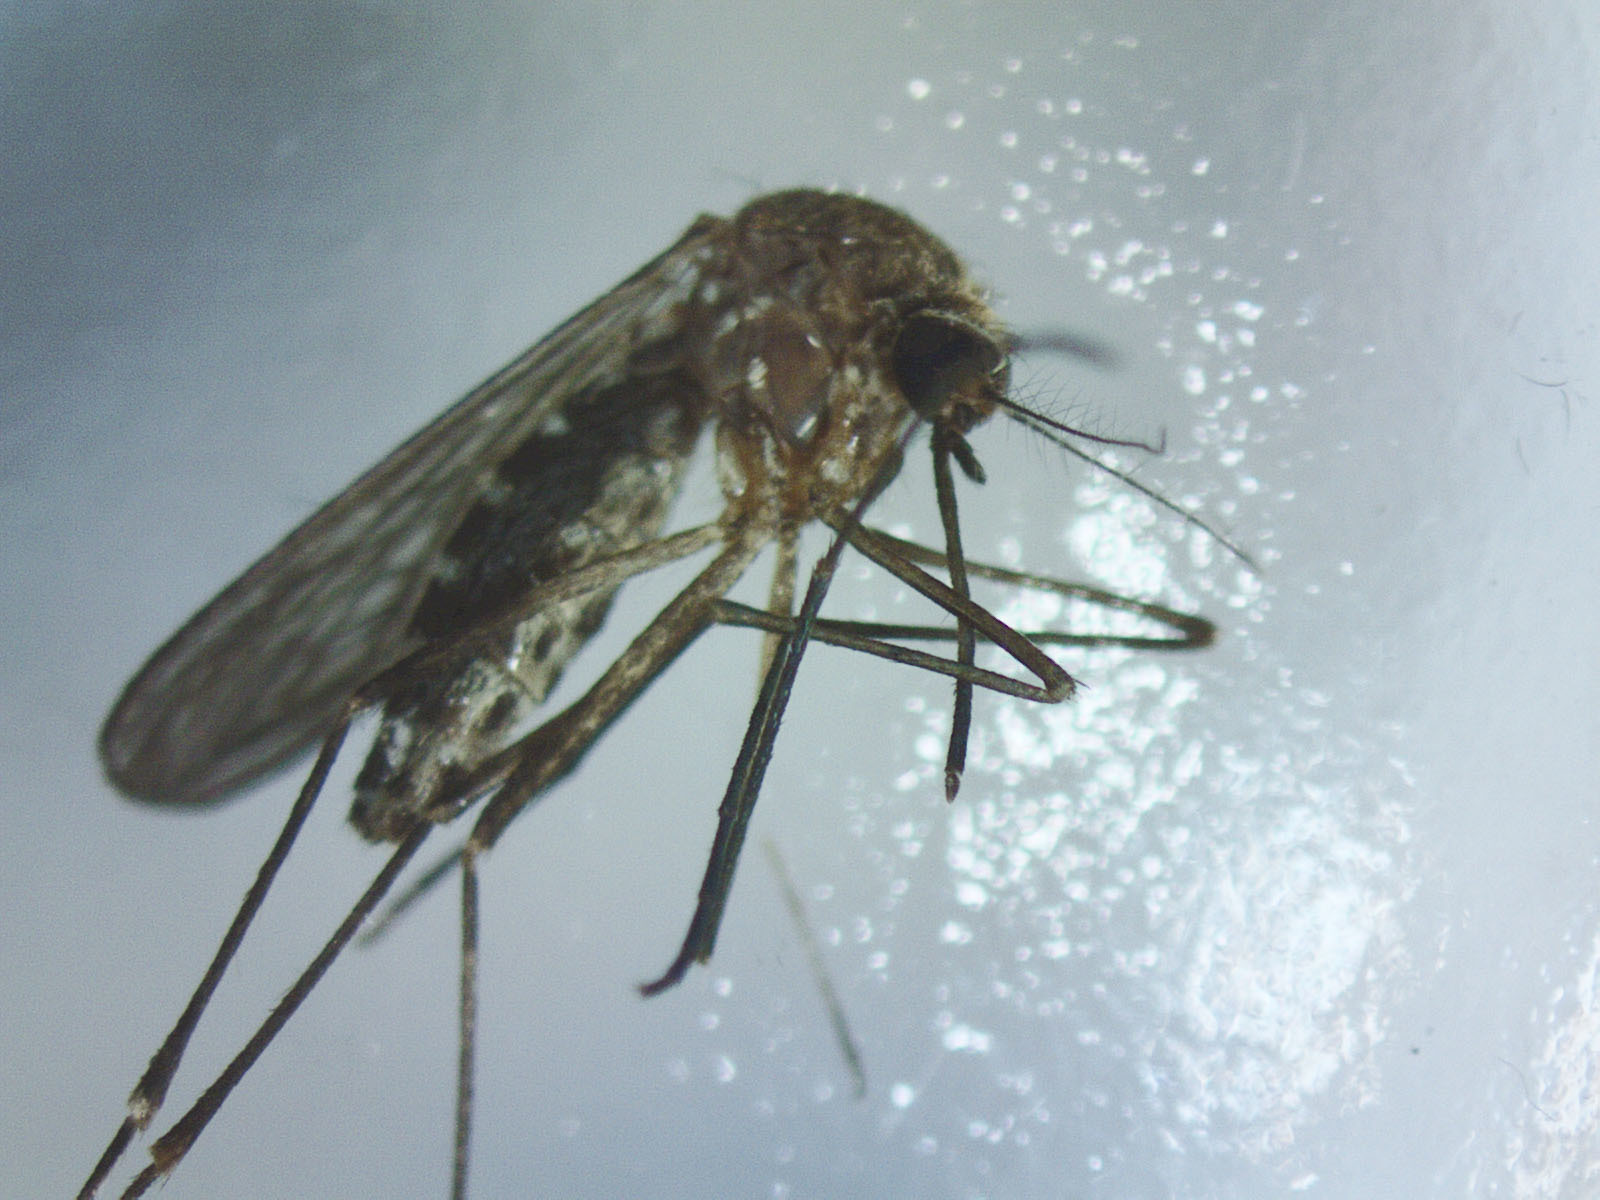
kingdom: Animalia
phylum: Arthropoda
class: Insecta
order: Diptera
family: Culicidae
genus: Culex
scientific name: Culex pervigilans
